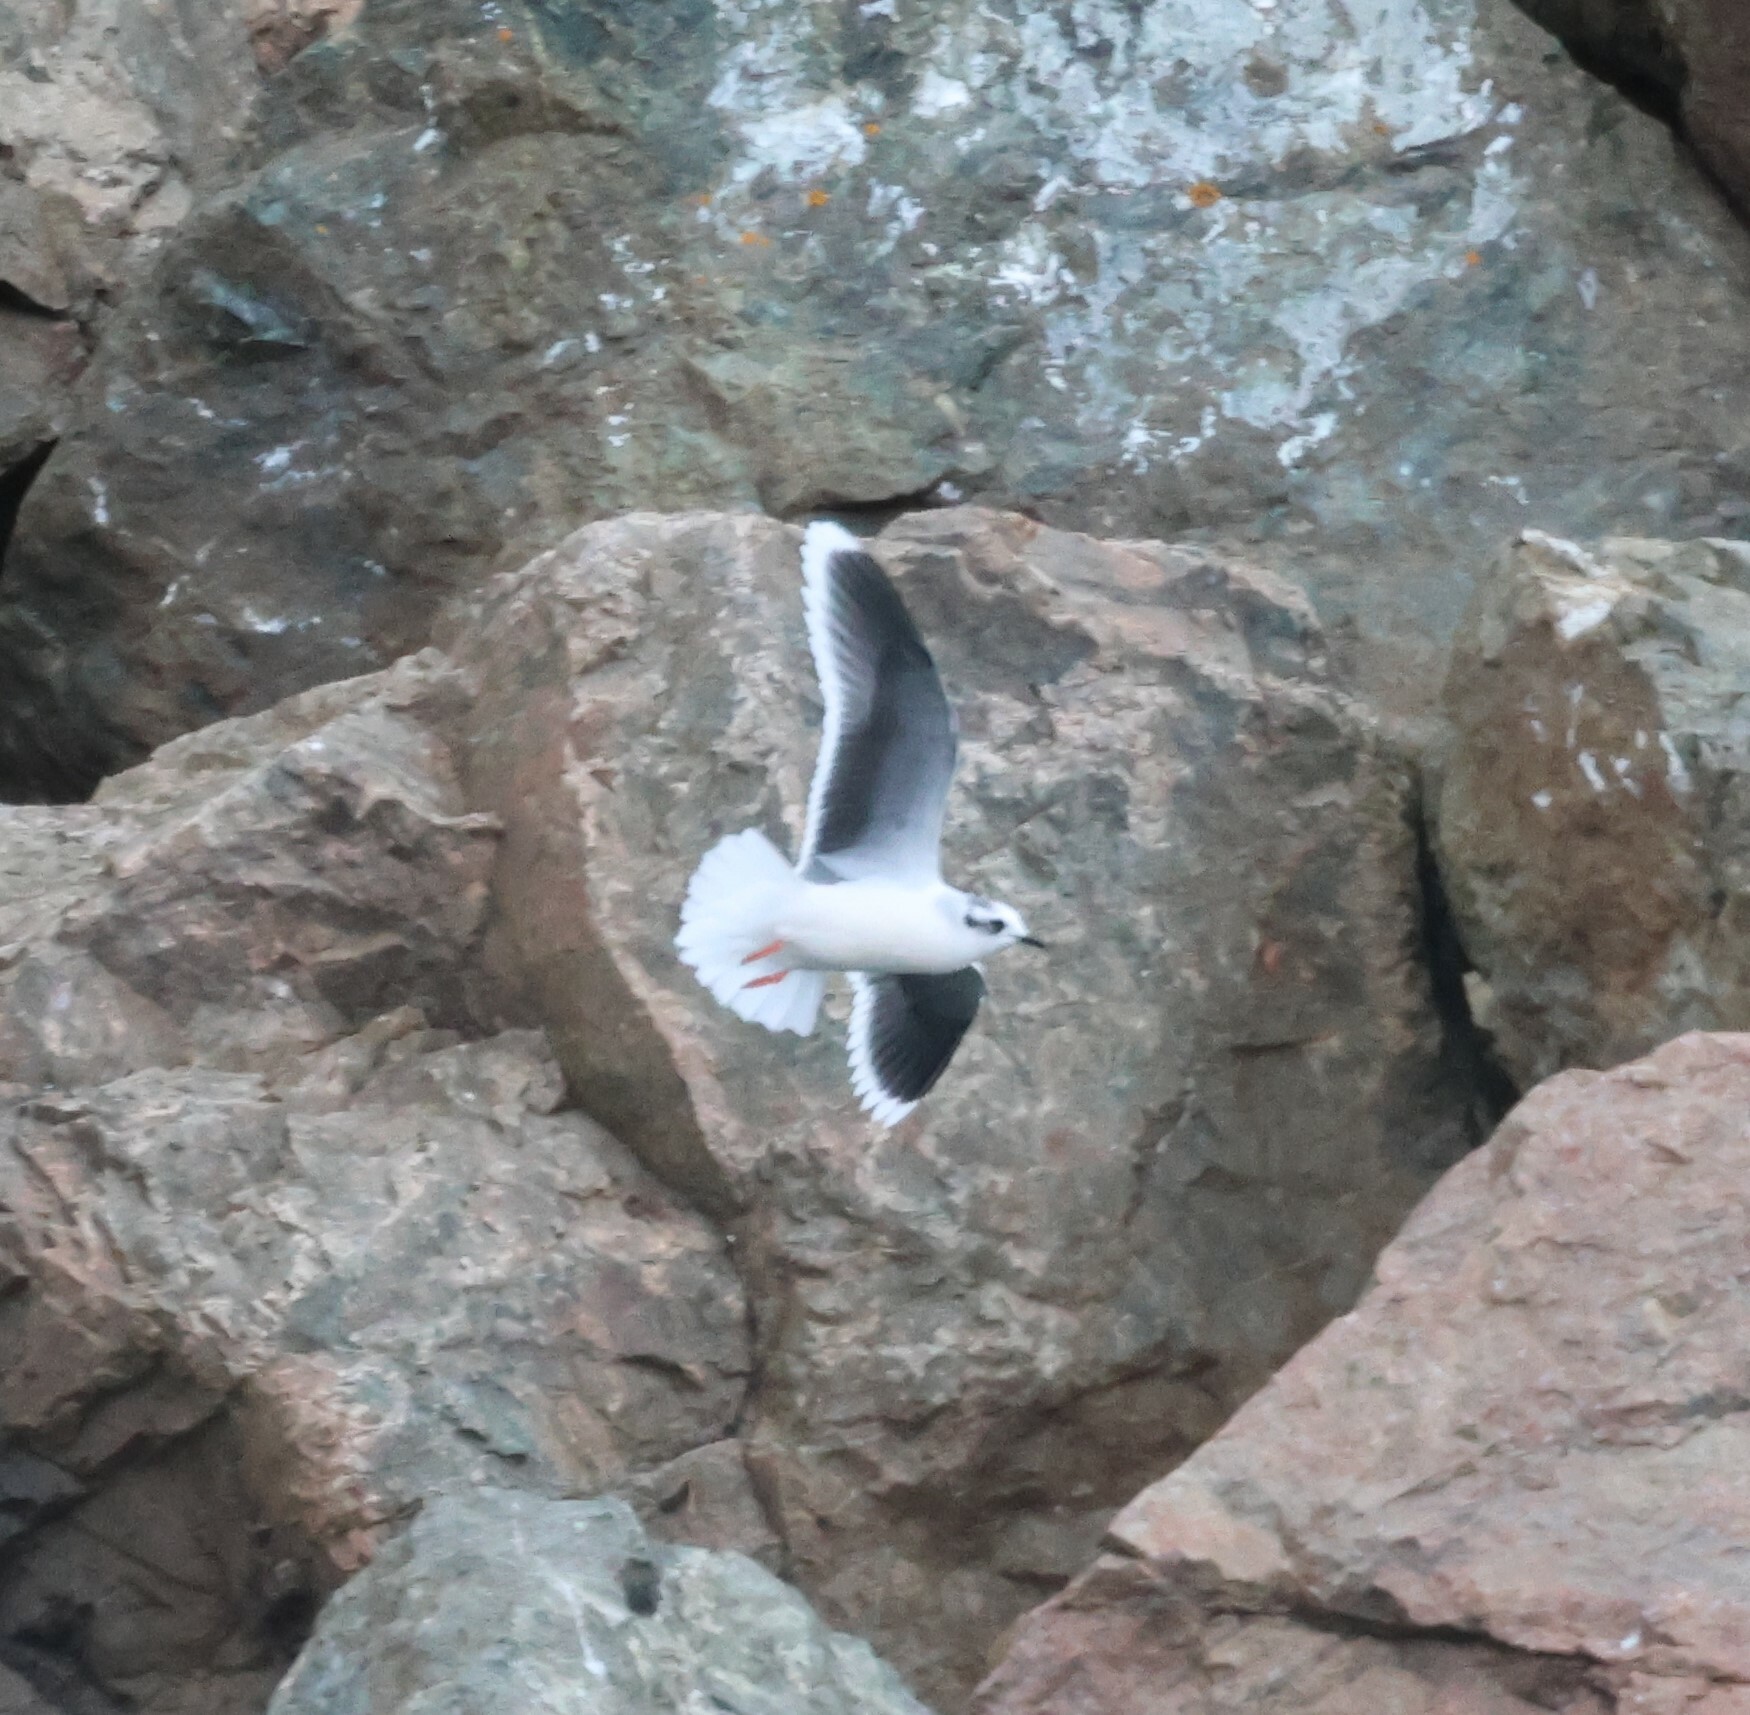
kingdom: Animalia
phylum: Chordata
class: Aves
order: Charadriiformes
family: Laridae
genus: Hydrocoloeus
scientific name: Hydrocoloeus minutus
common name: Little gull
